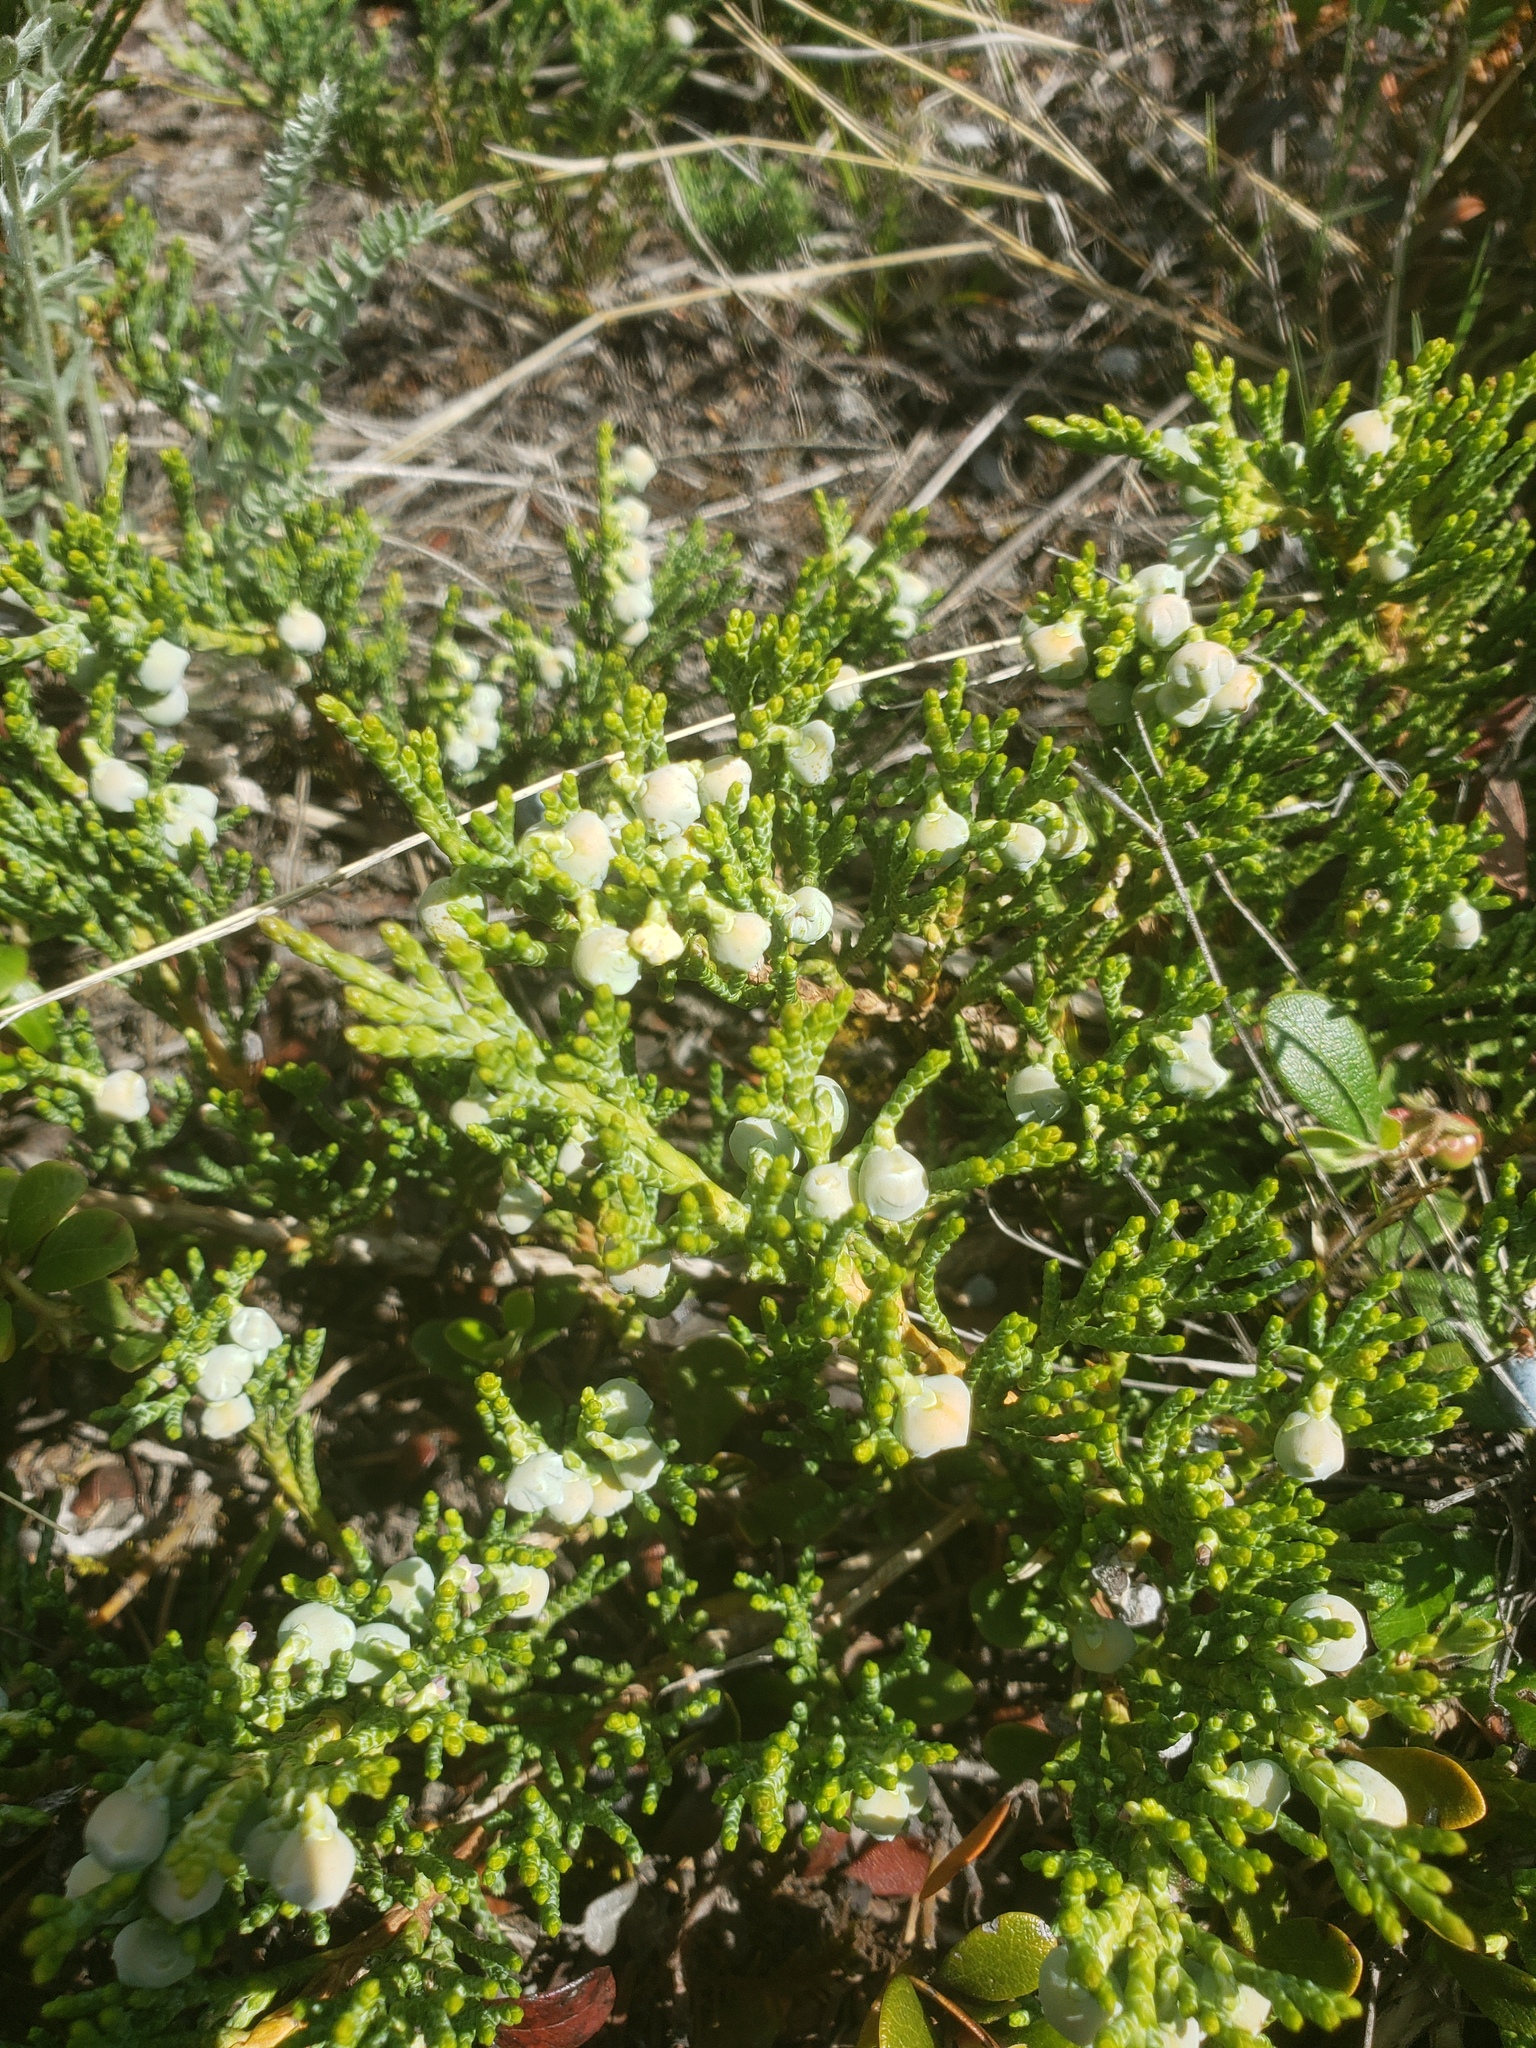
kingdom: Plantae
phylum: Tracheophyta
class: Pinopsida
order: Pinales
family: Cupressaceae
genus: Juniperus
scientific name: Juniperus horizontalis
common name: Creeping juniper
